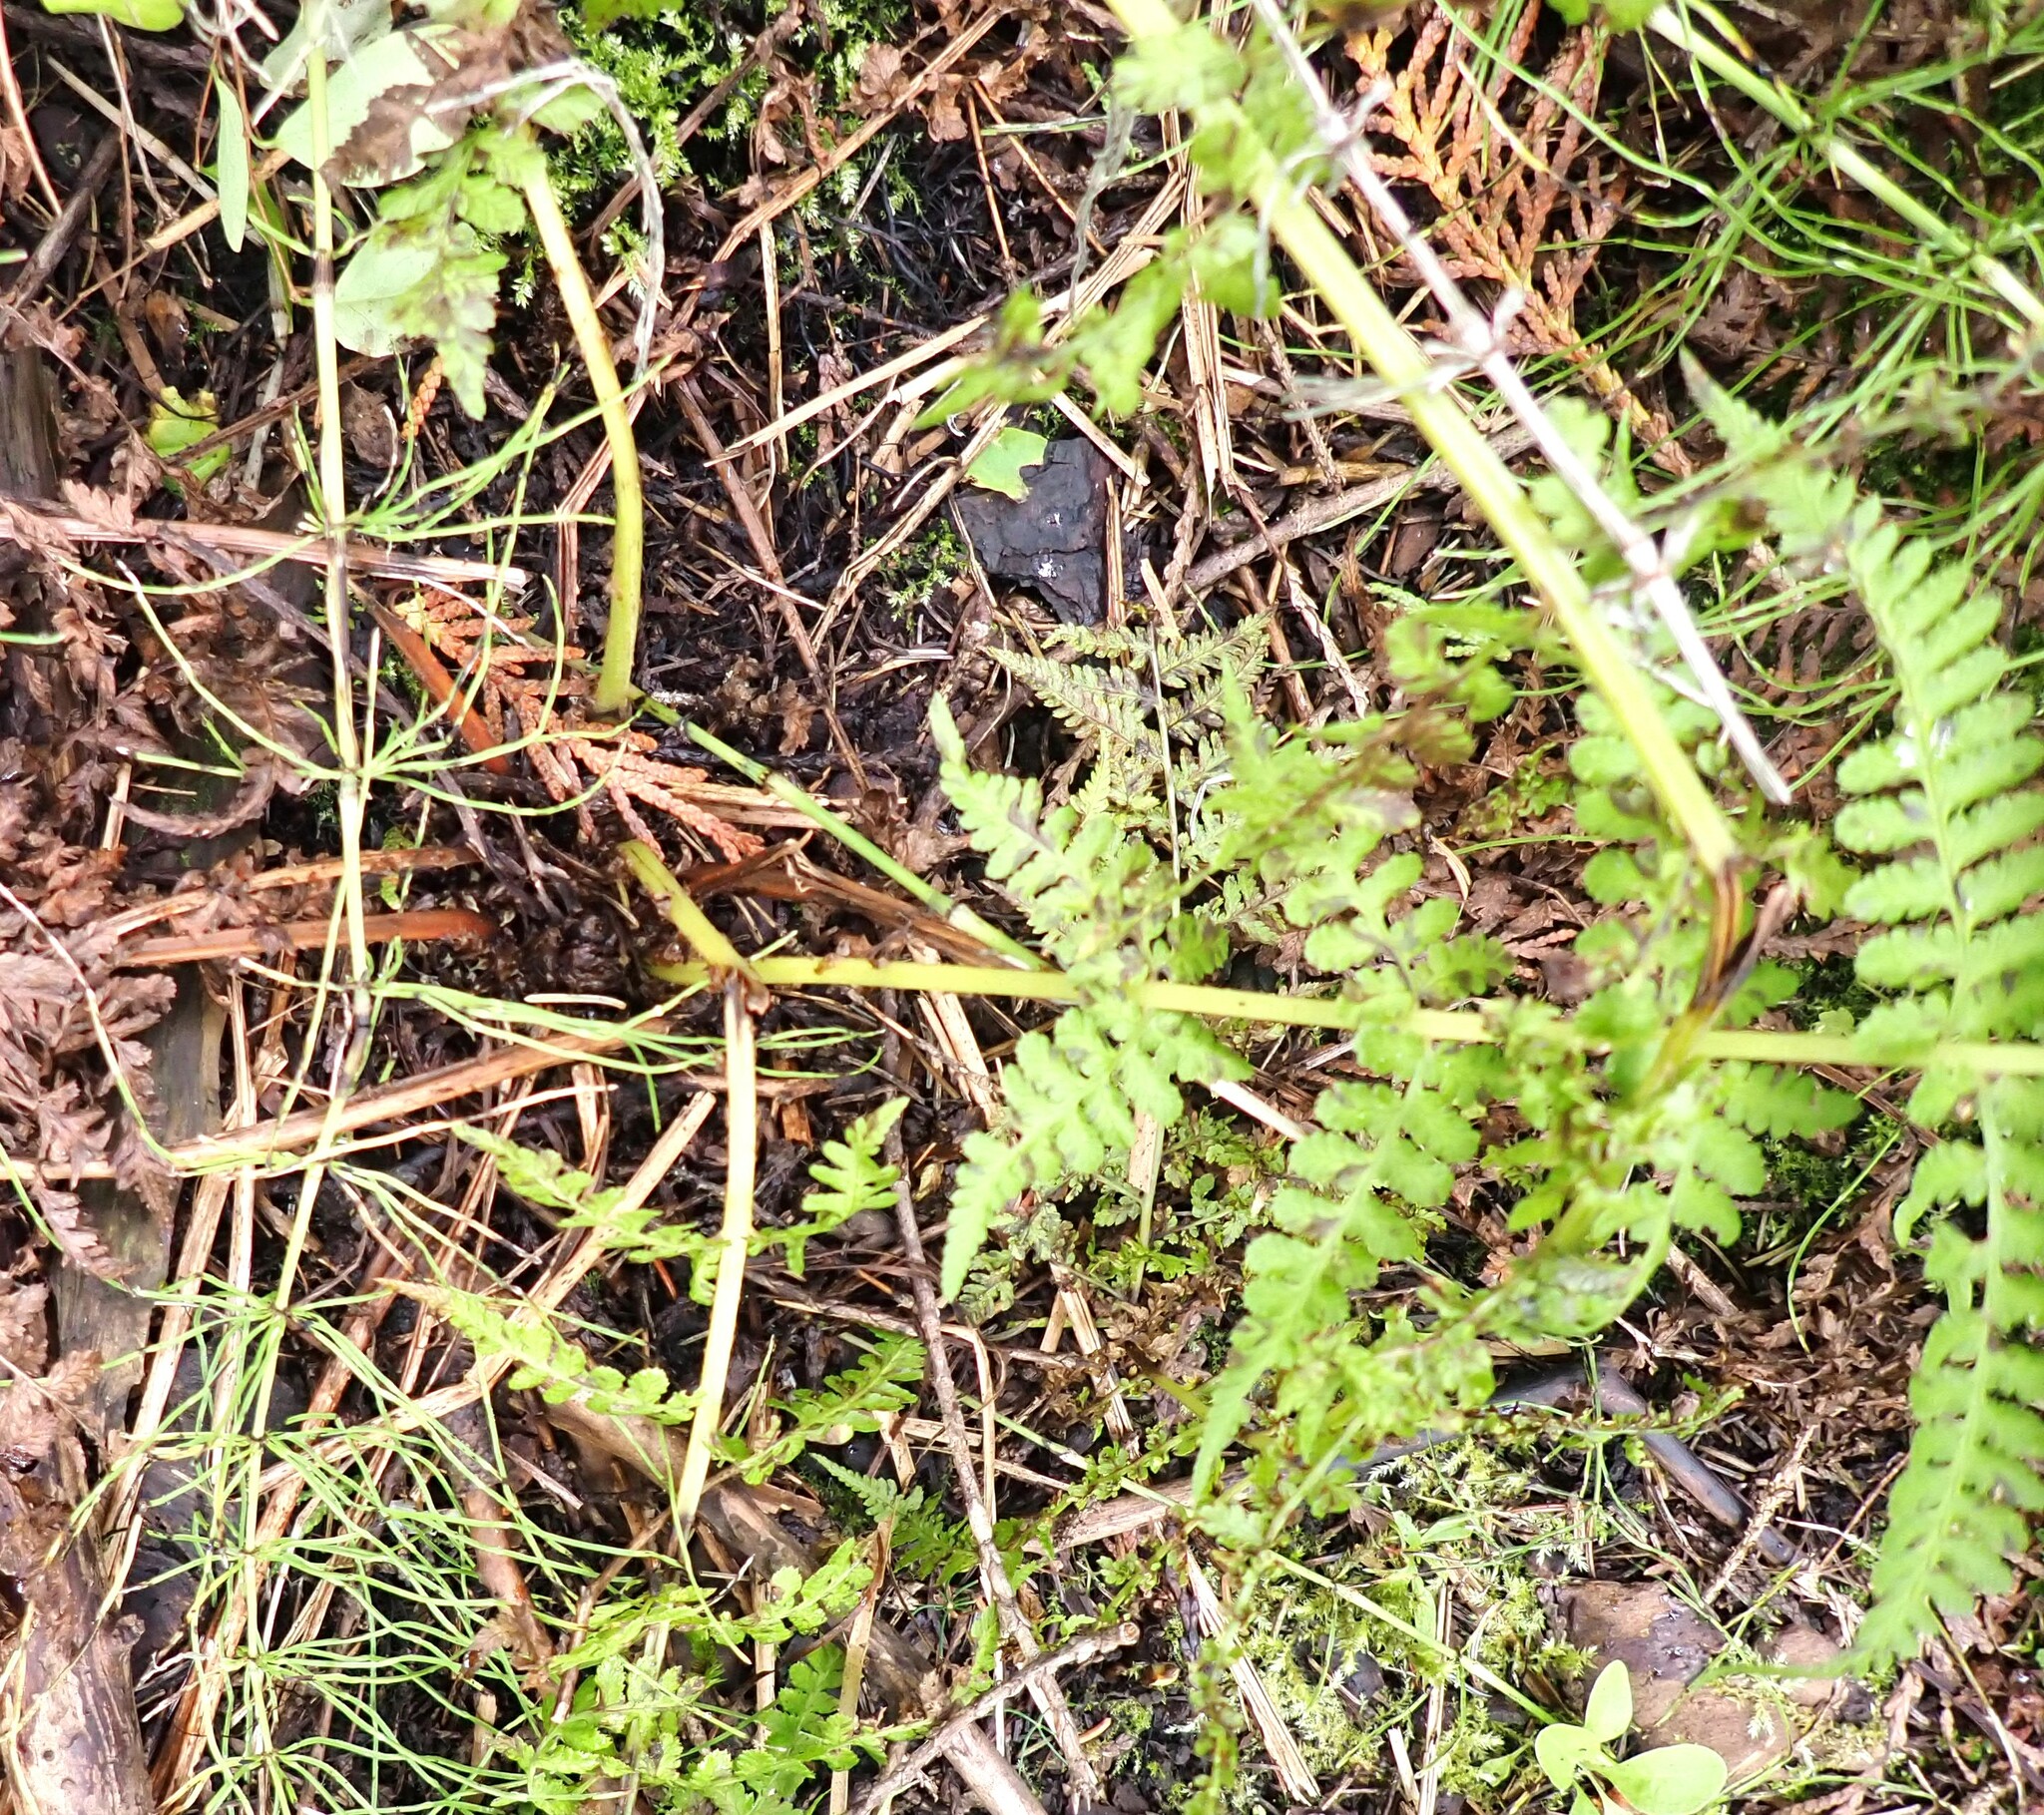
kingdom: Plantae
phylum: Tracheophyta
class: Polypodiopsida
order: Polypodiales
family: Athyriaceae
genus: Athyrium
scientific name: Athyrium filix-femina
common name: Lady fern
